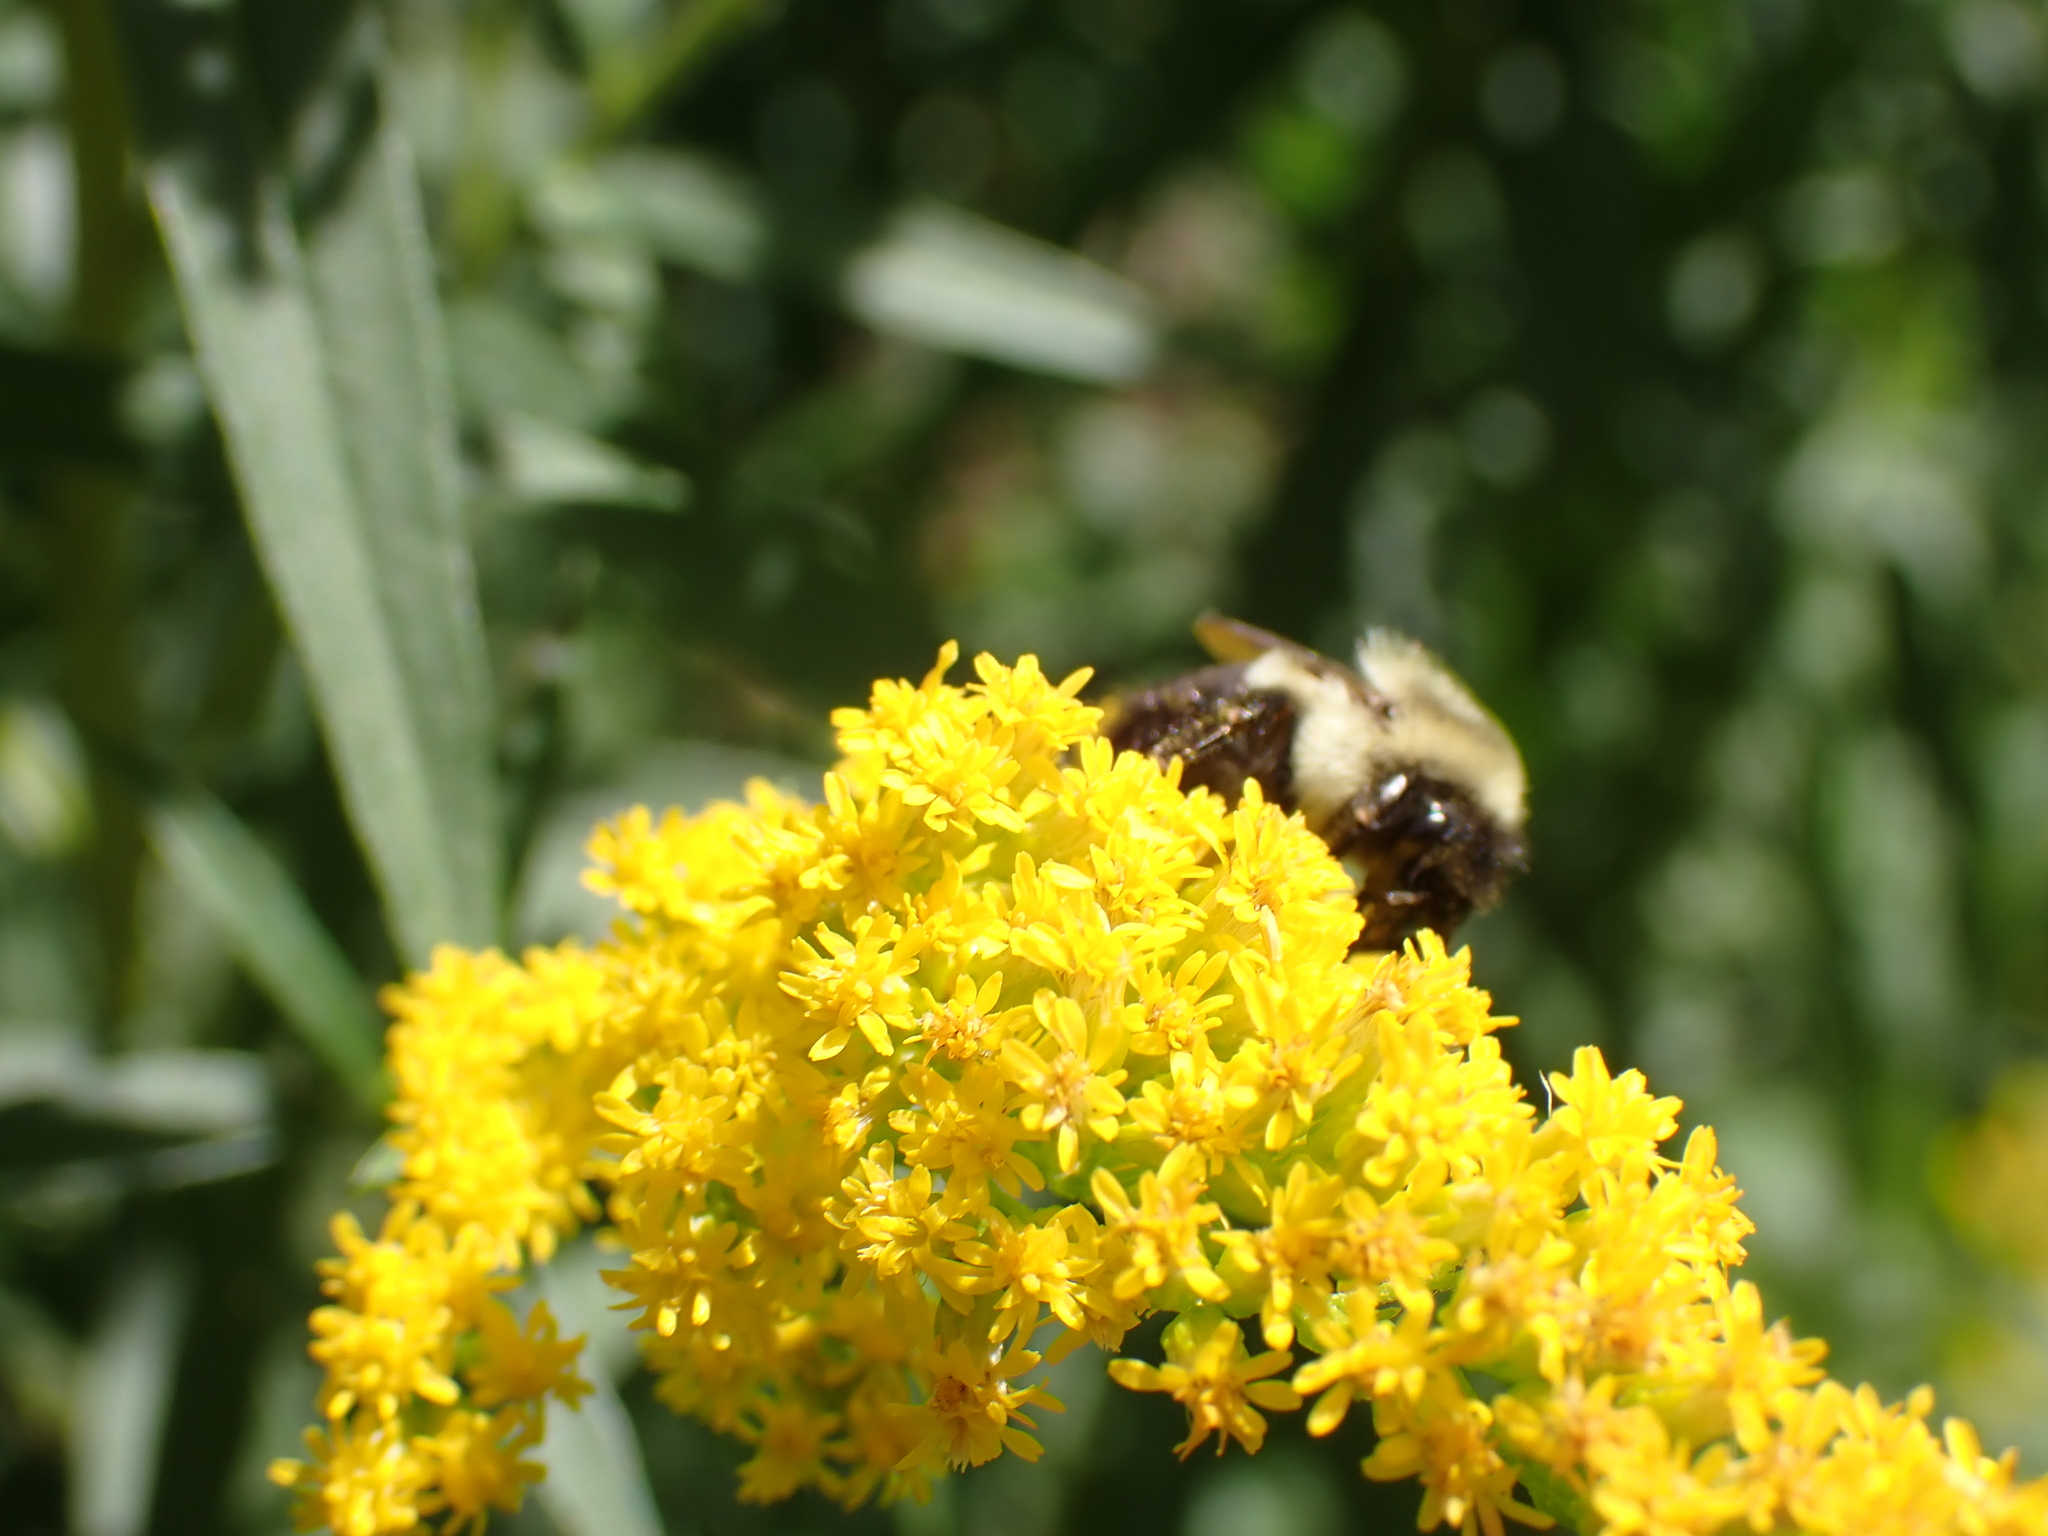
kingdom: Animalia
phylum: Arthropoda
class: Insecta
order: Hymenoptera
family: Apidae
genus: Bombus
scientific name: Bombus impatiens
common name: Common eastern bumble bee
